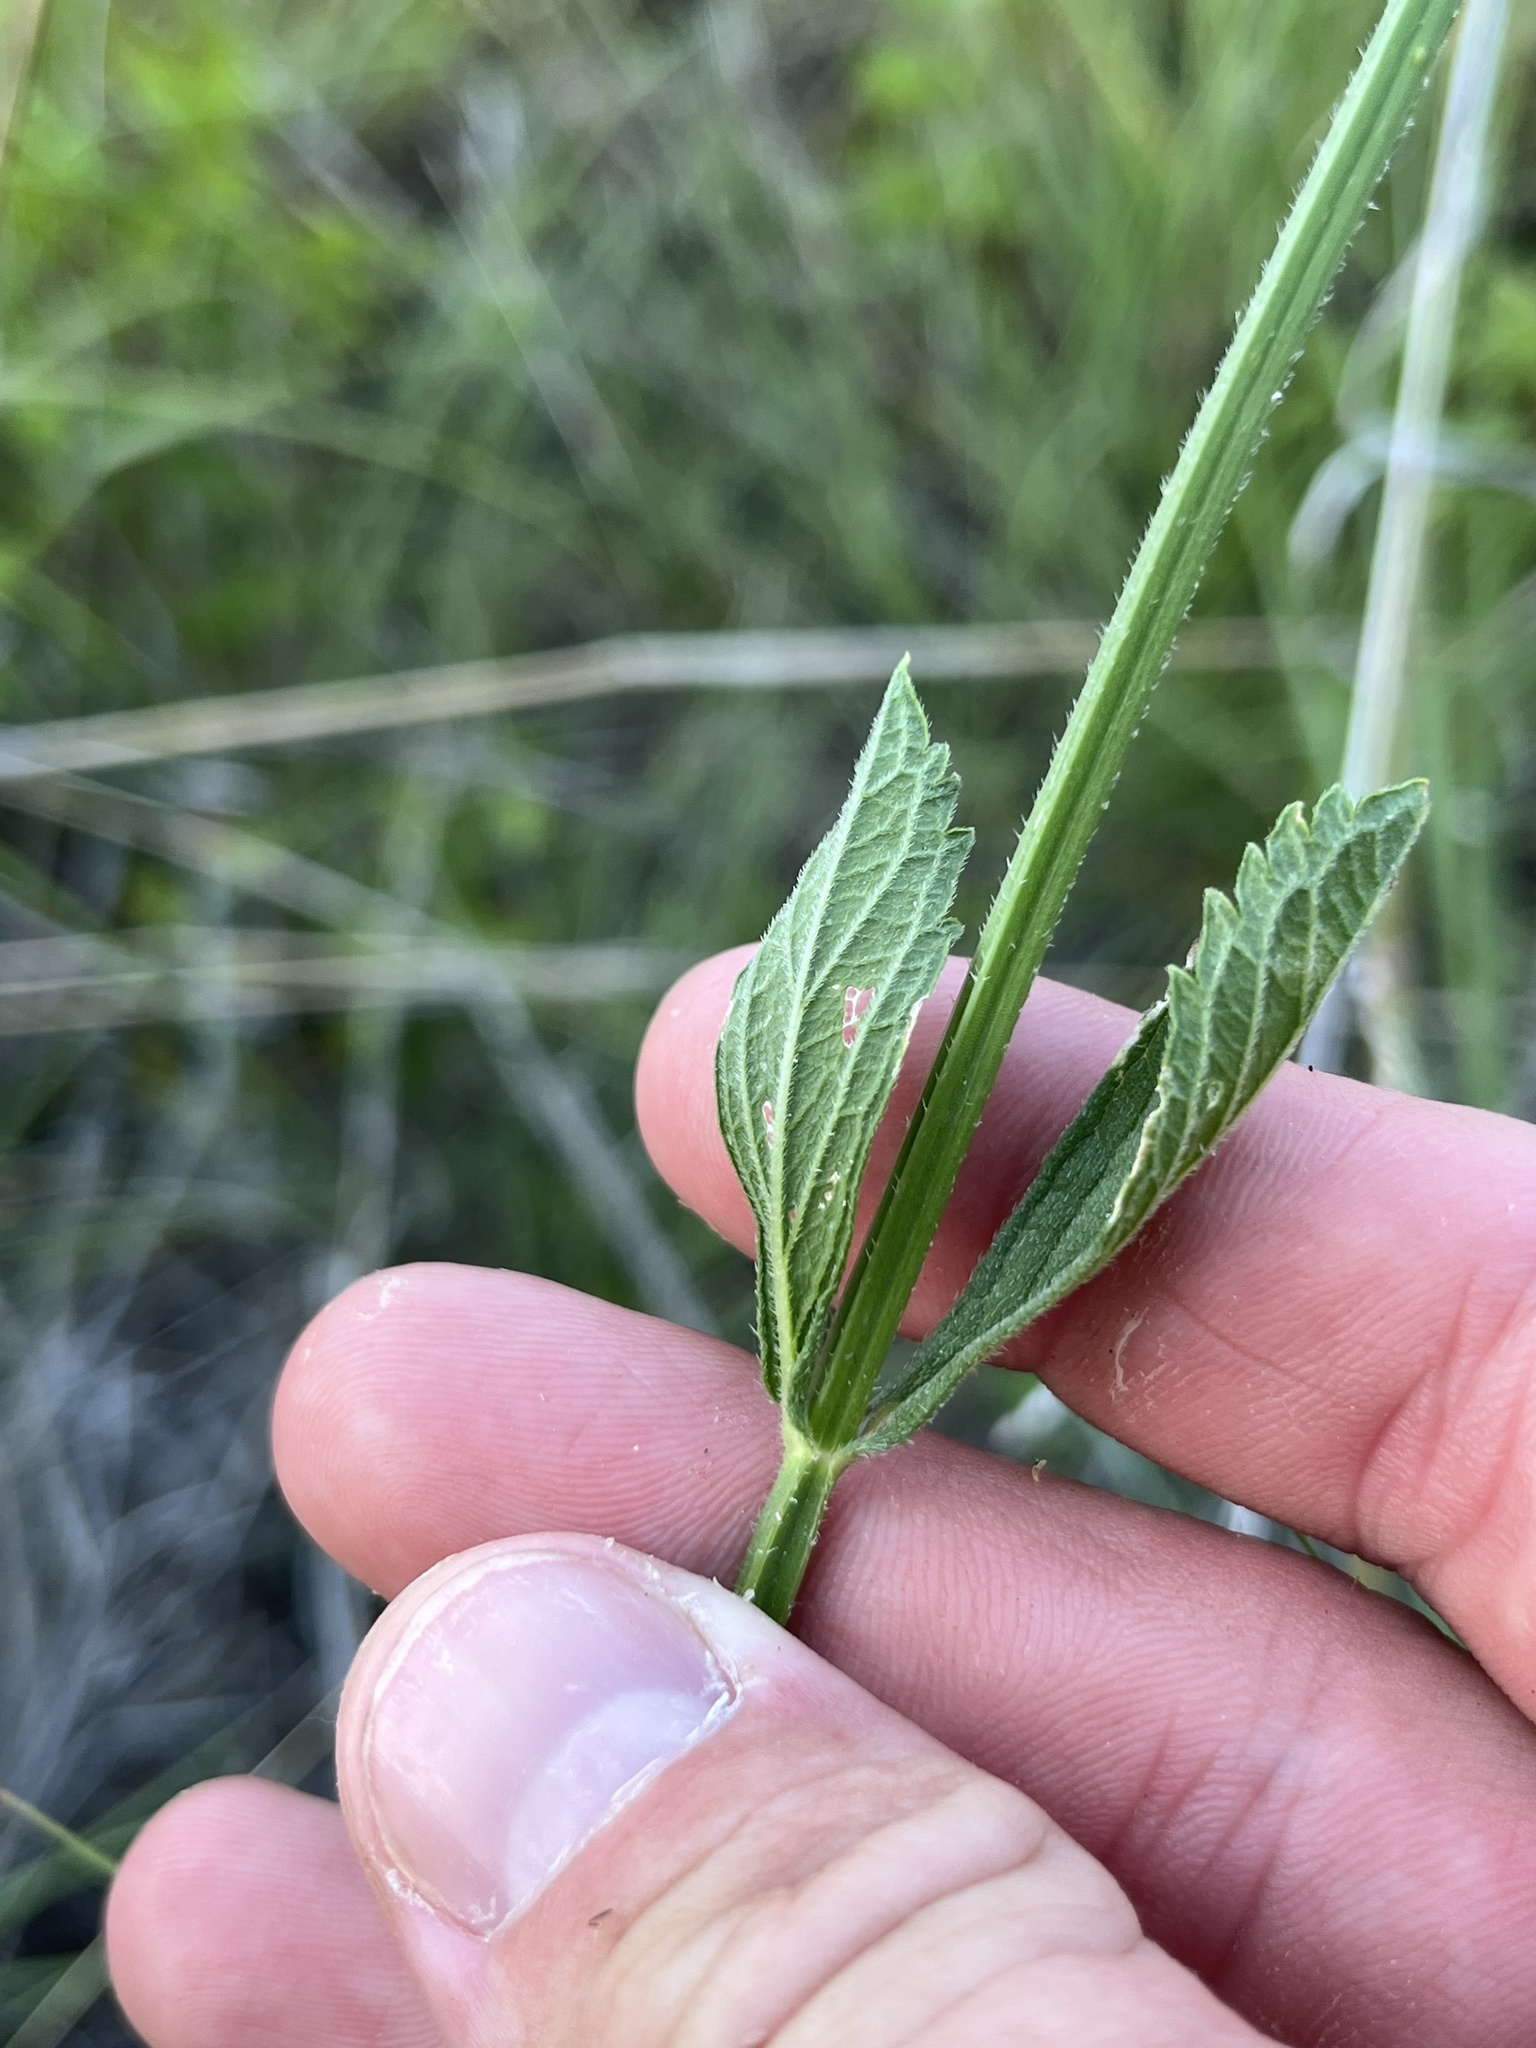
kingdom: Plantae
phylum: Tracheophyta
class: Magnoliopsida
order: Lamiales
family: Verbenaceae
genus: Verbena
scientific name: Verbena brasiliensis
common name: Brazilian vervain
